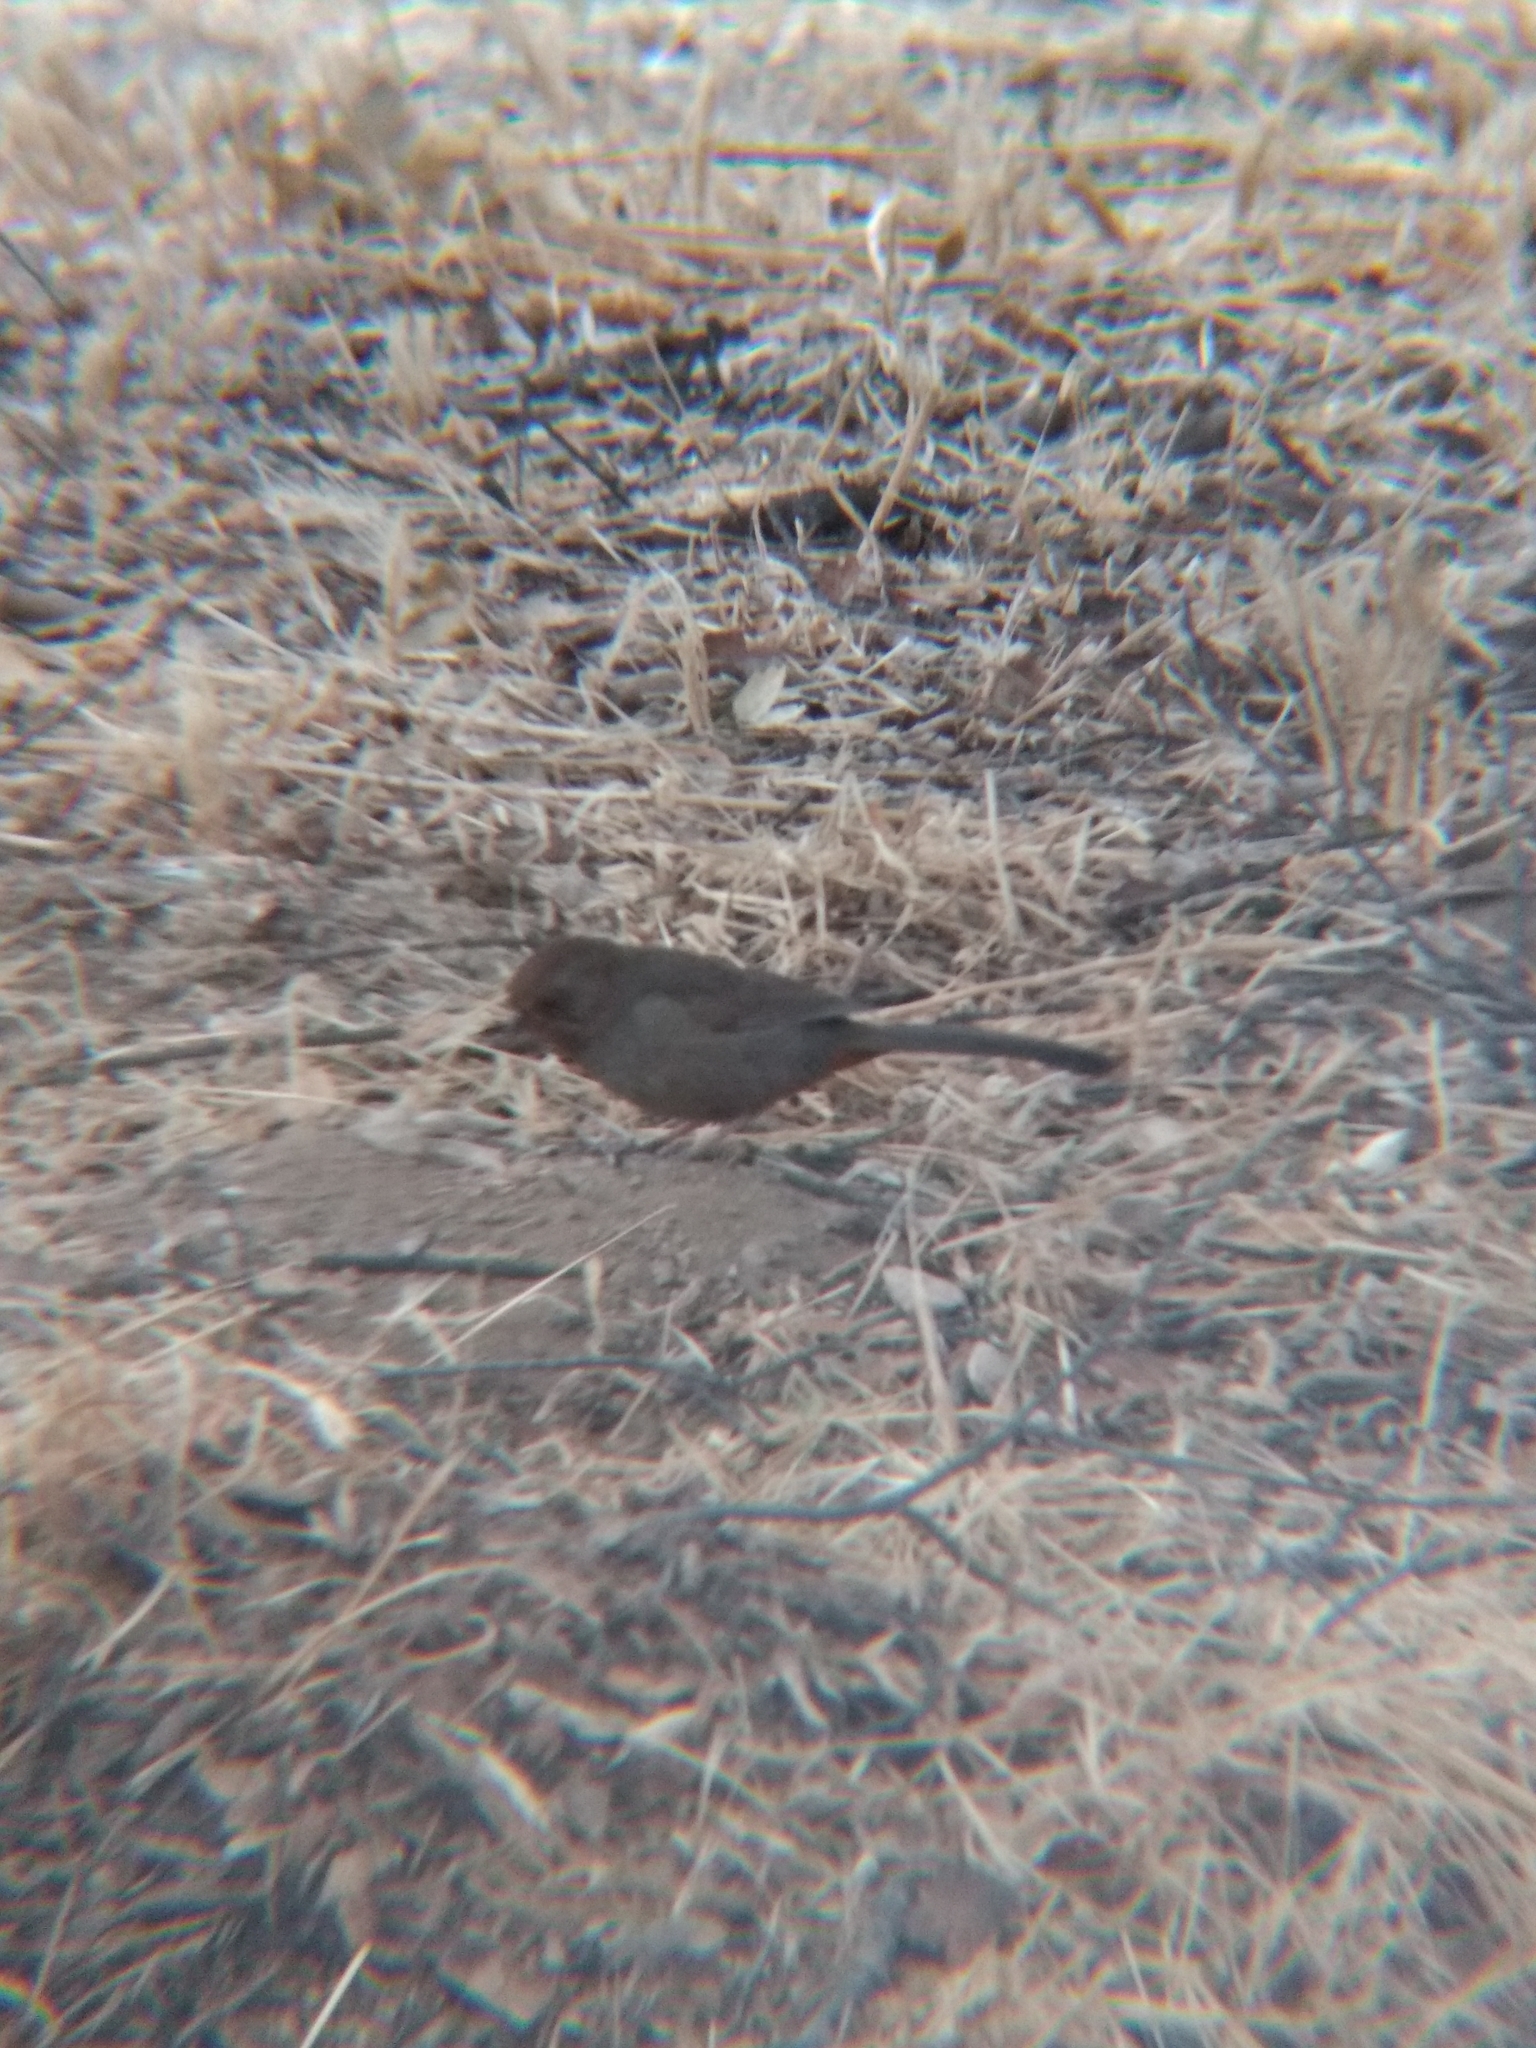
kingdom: Animalia
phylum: Chordata
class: Aves
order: Passeriformes
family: Passerellidae
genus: Melozone
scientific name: Melozone crissalis
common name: California towhee
